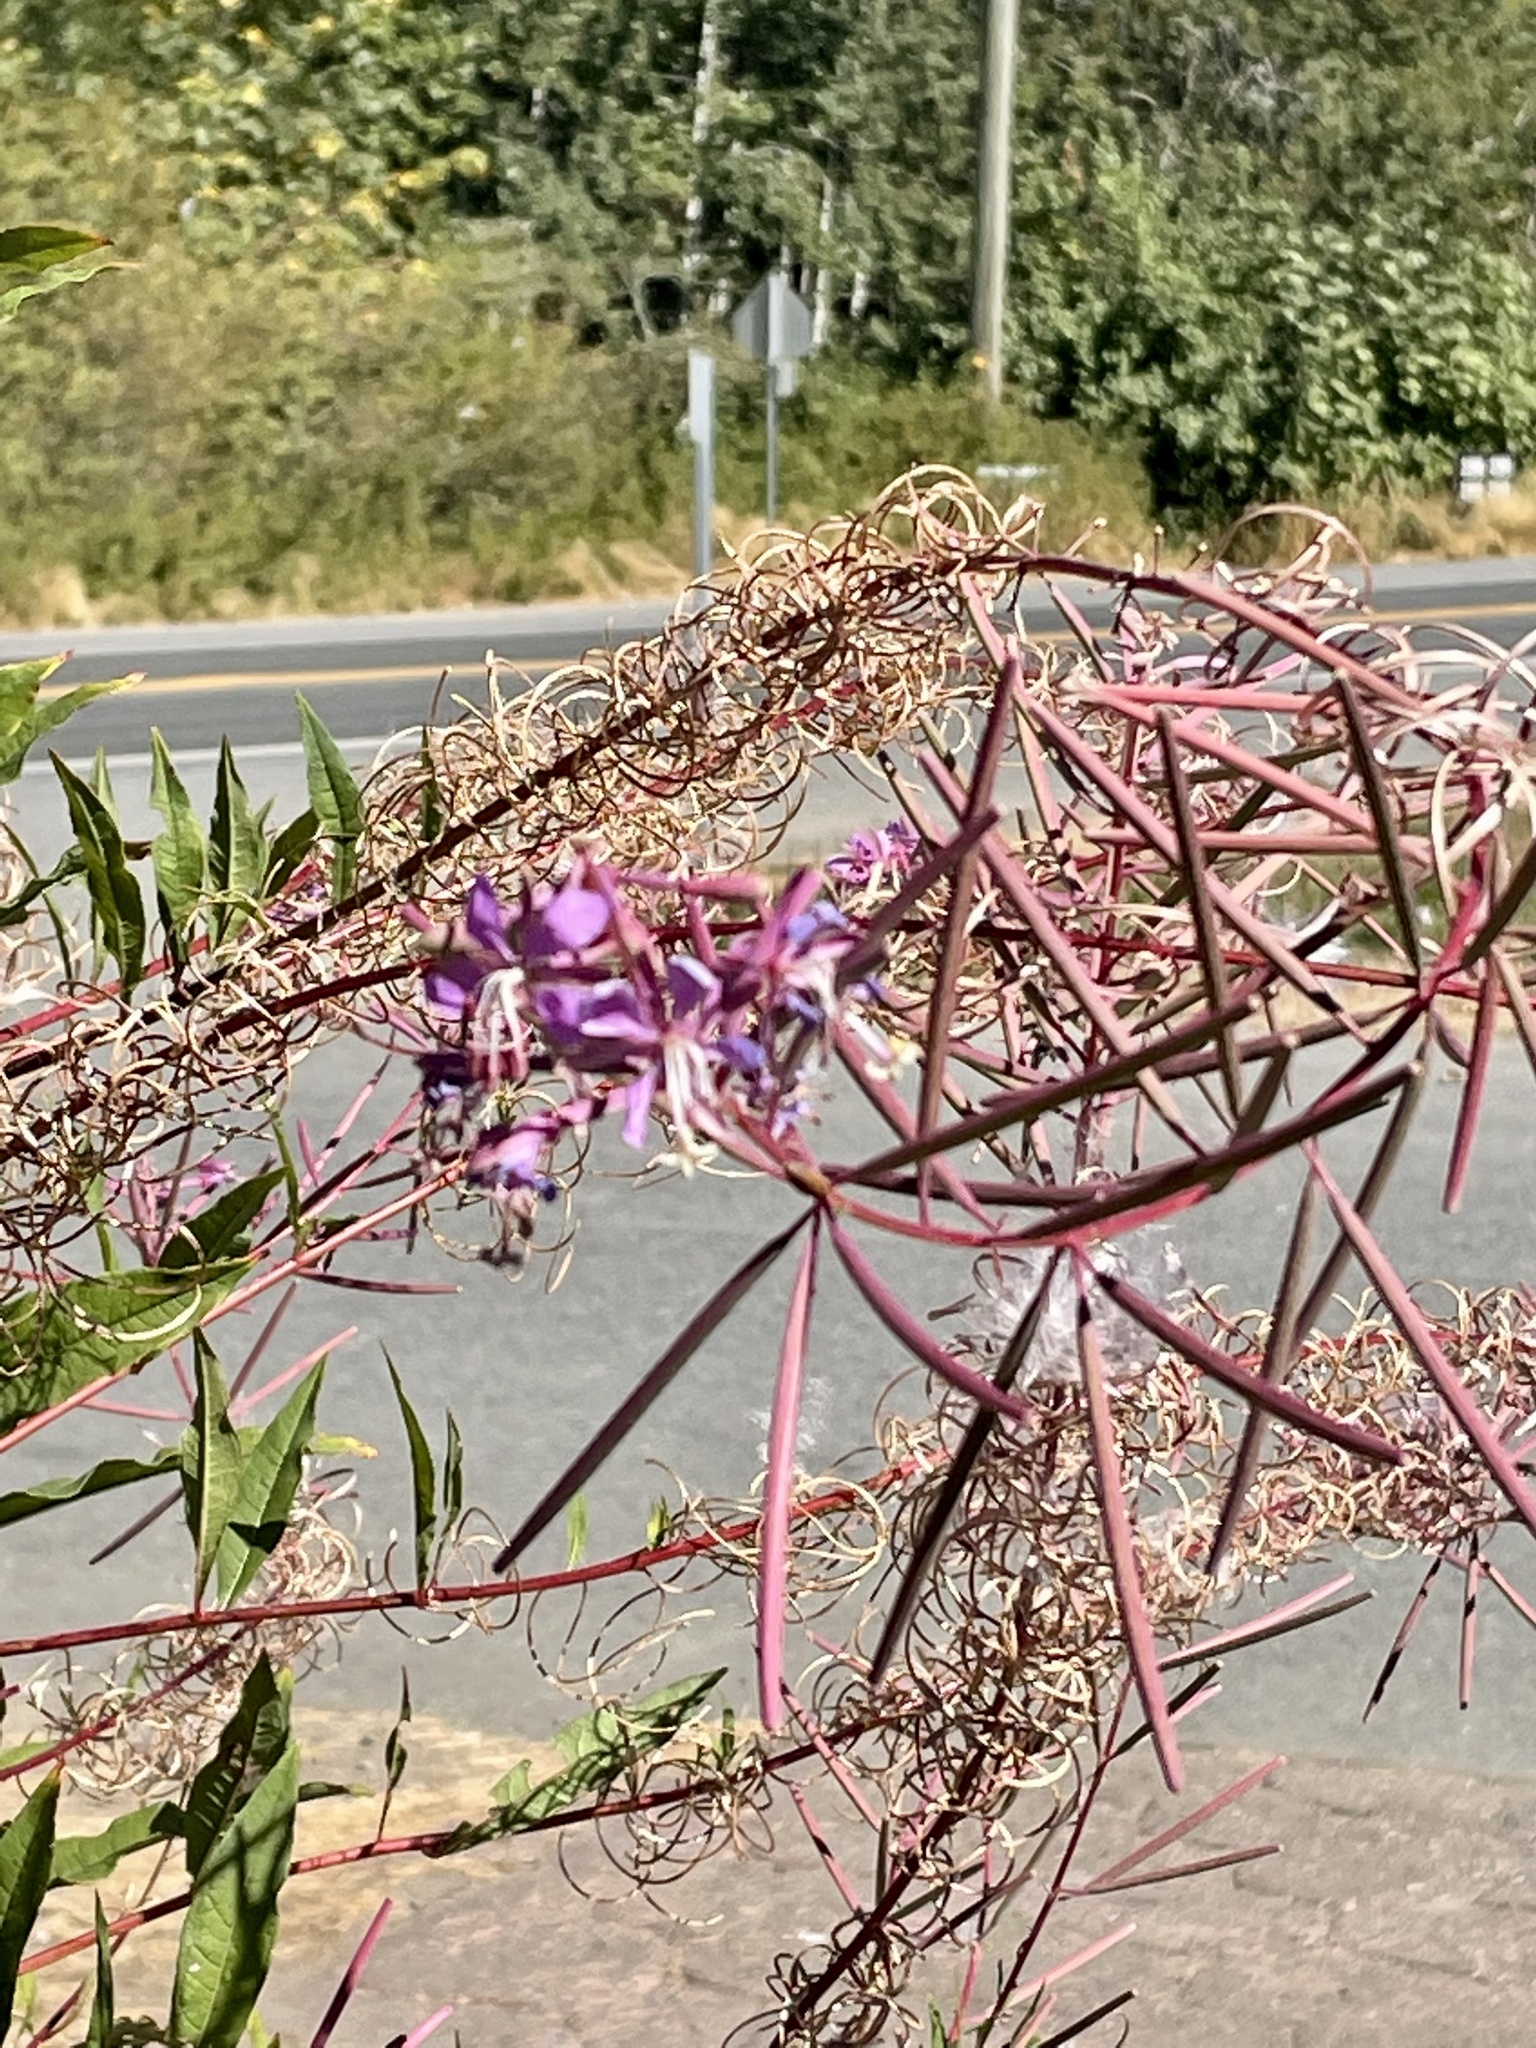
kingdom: Plantae
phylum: Tracheophyta
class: Magnoliopsida
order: Myrtales
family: Onagraceae
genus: Chamaenerion
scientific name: Chamaenerion angustifolium
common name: Fireweed
